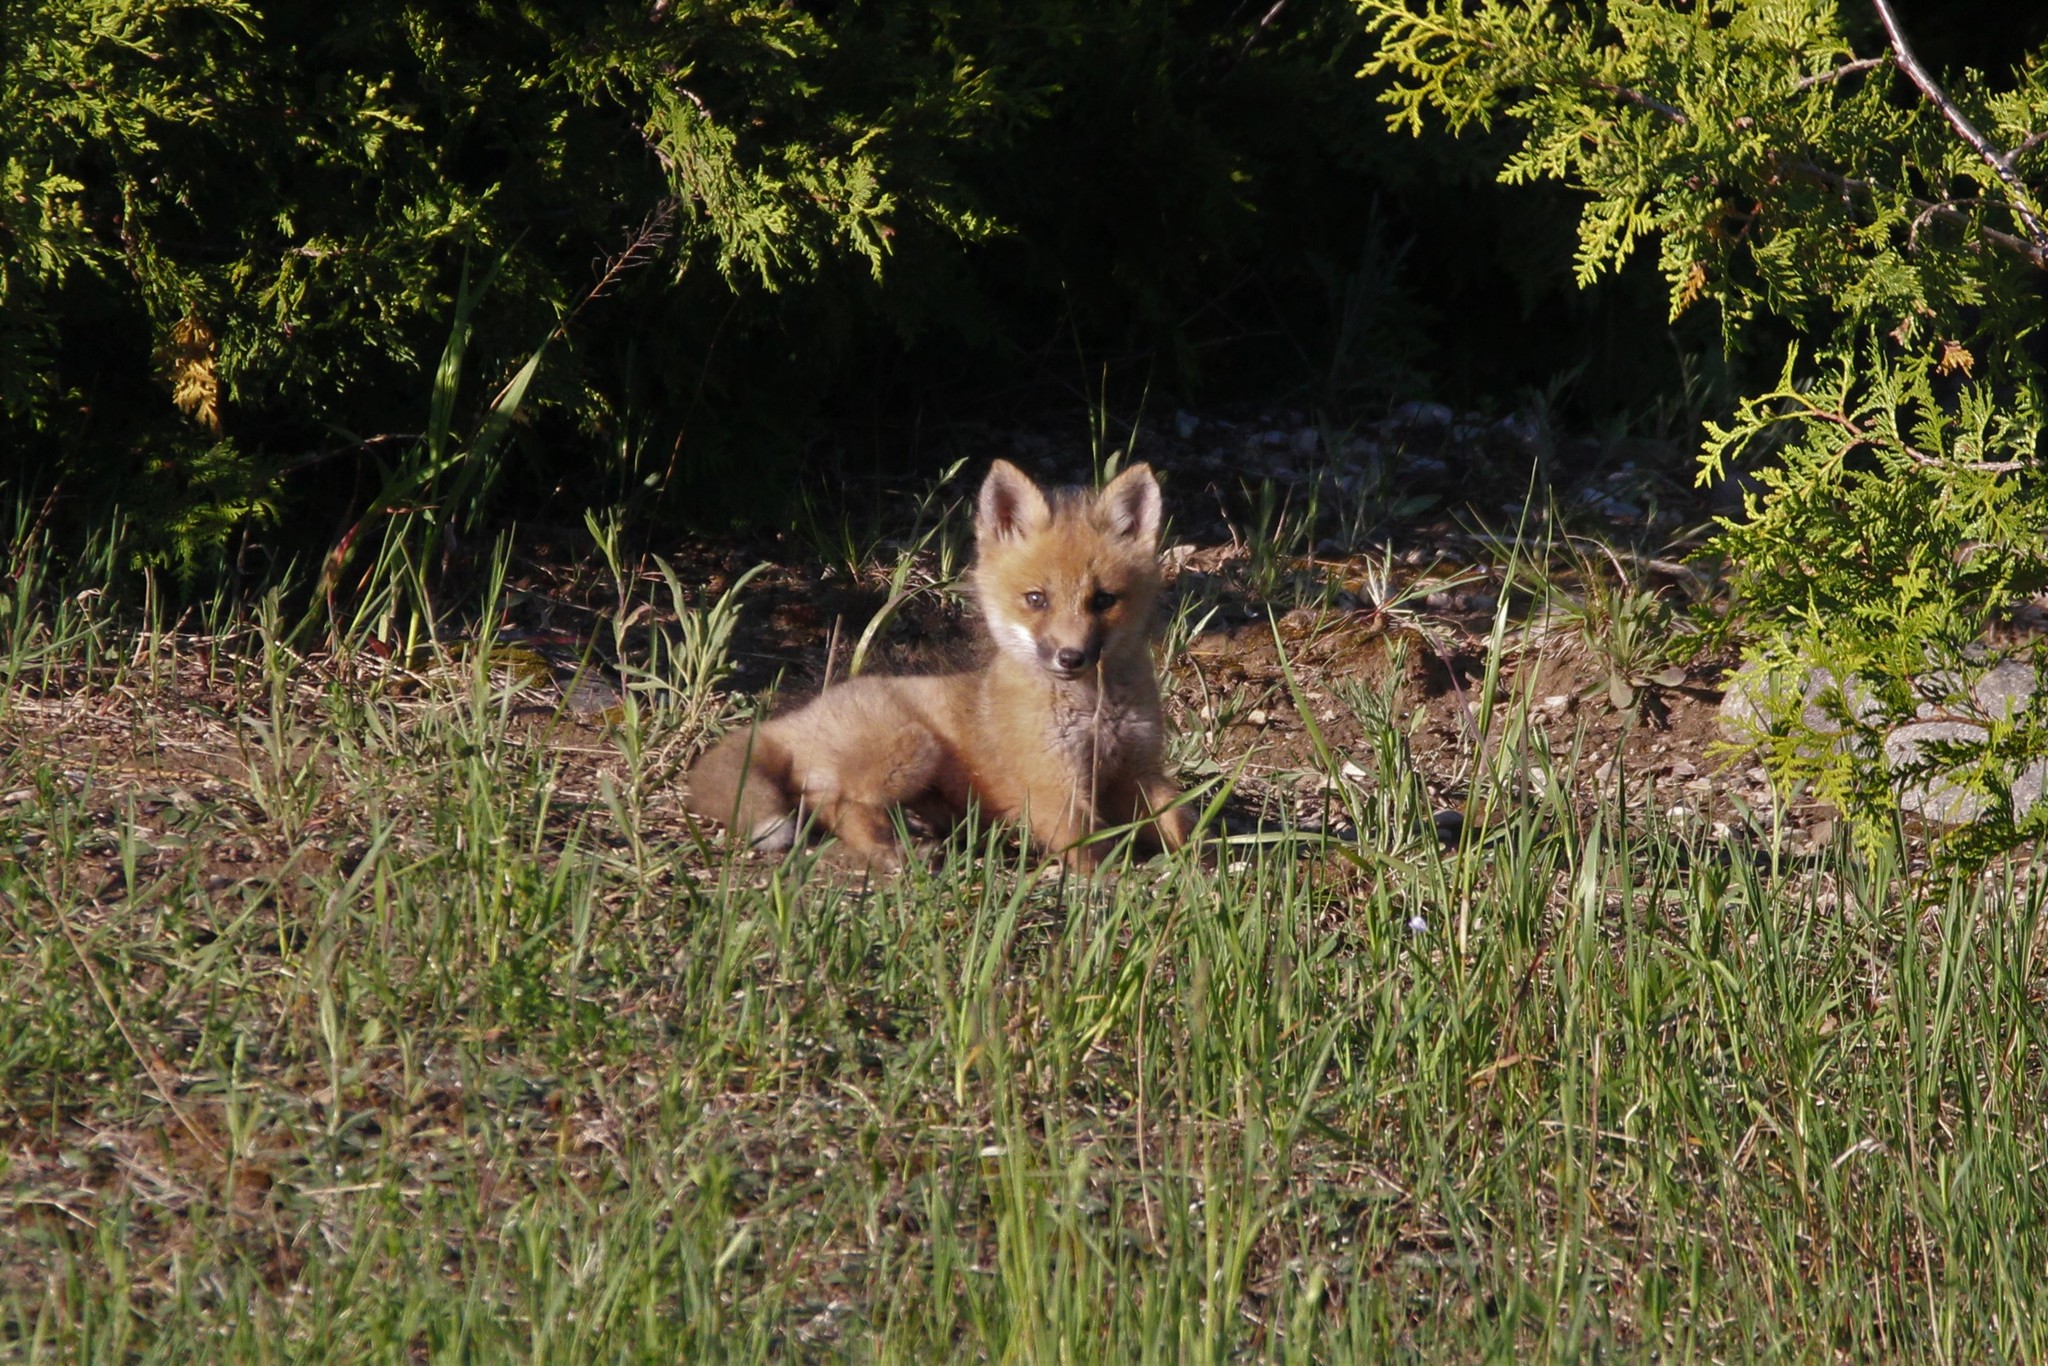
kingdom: Animalia
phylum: Chordata
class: Mammalia
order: Carnivora
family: Canidae
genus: Vulpes
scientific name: Vulpes vulpes
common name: Red fox
